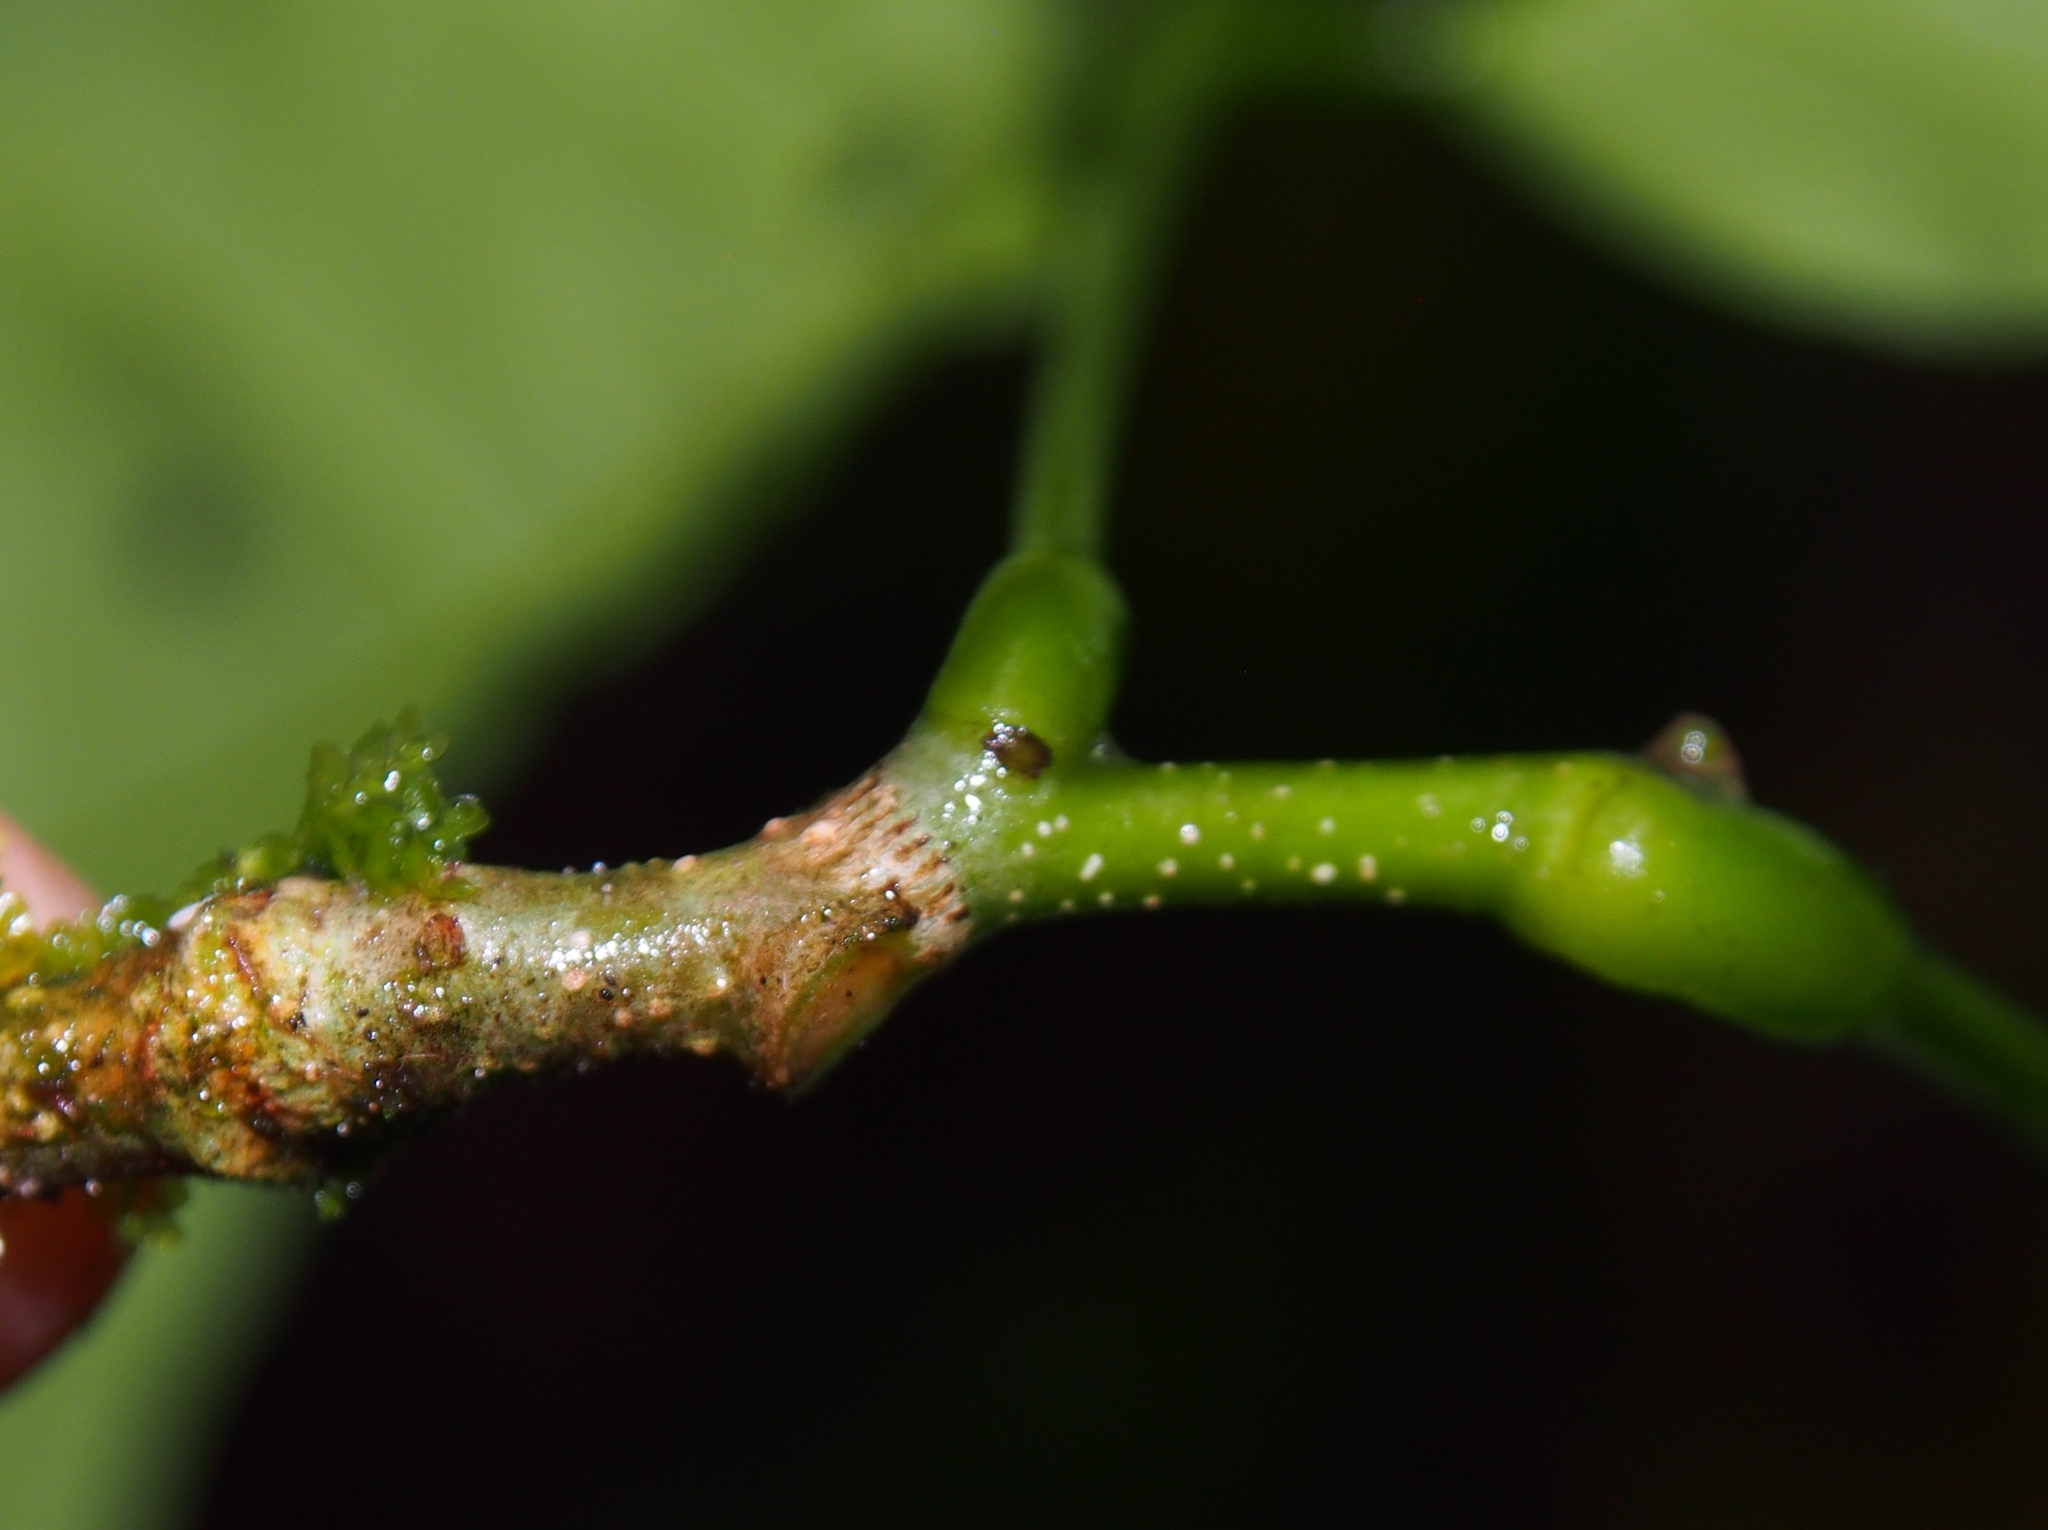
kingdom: Plantae
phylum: Tracheophyta
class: Magnoliopsida
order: Fabales
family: Fabaceae
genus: Lonchocarpus
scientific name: Lonchocarpus oliganthus
